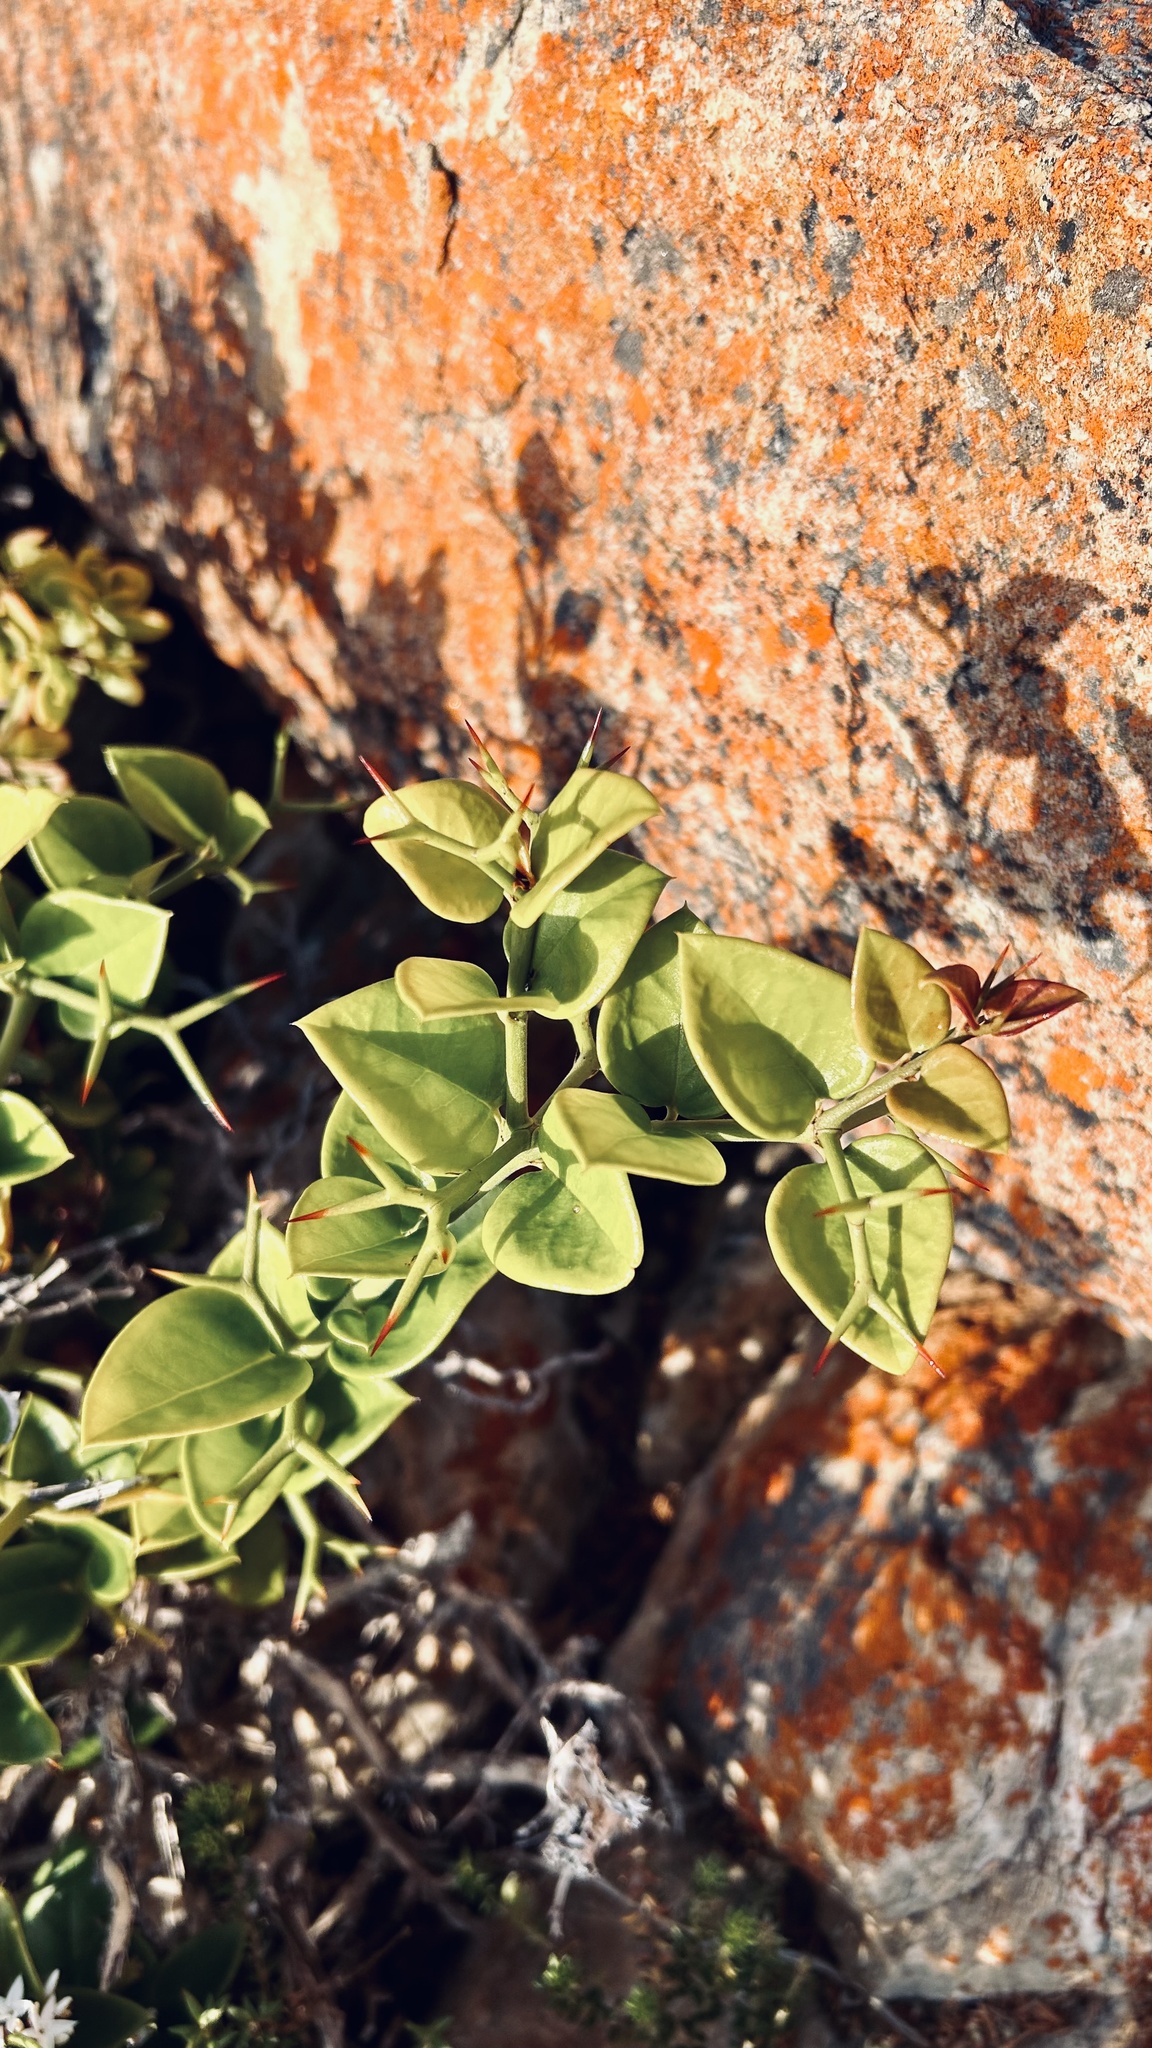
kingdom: Plantae
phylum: Tracheophyta
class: Magnoliopsida
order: Gentianales
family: Apocynaceae
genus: Carissa
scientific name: Carissa bispinosa
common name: Forest num-num
